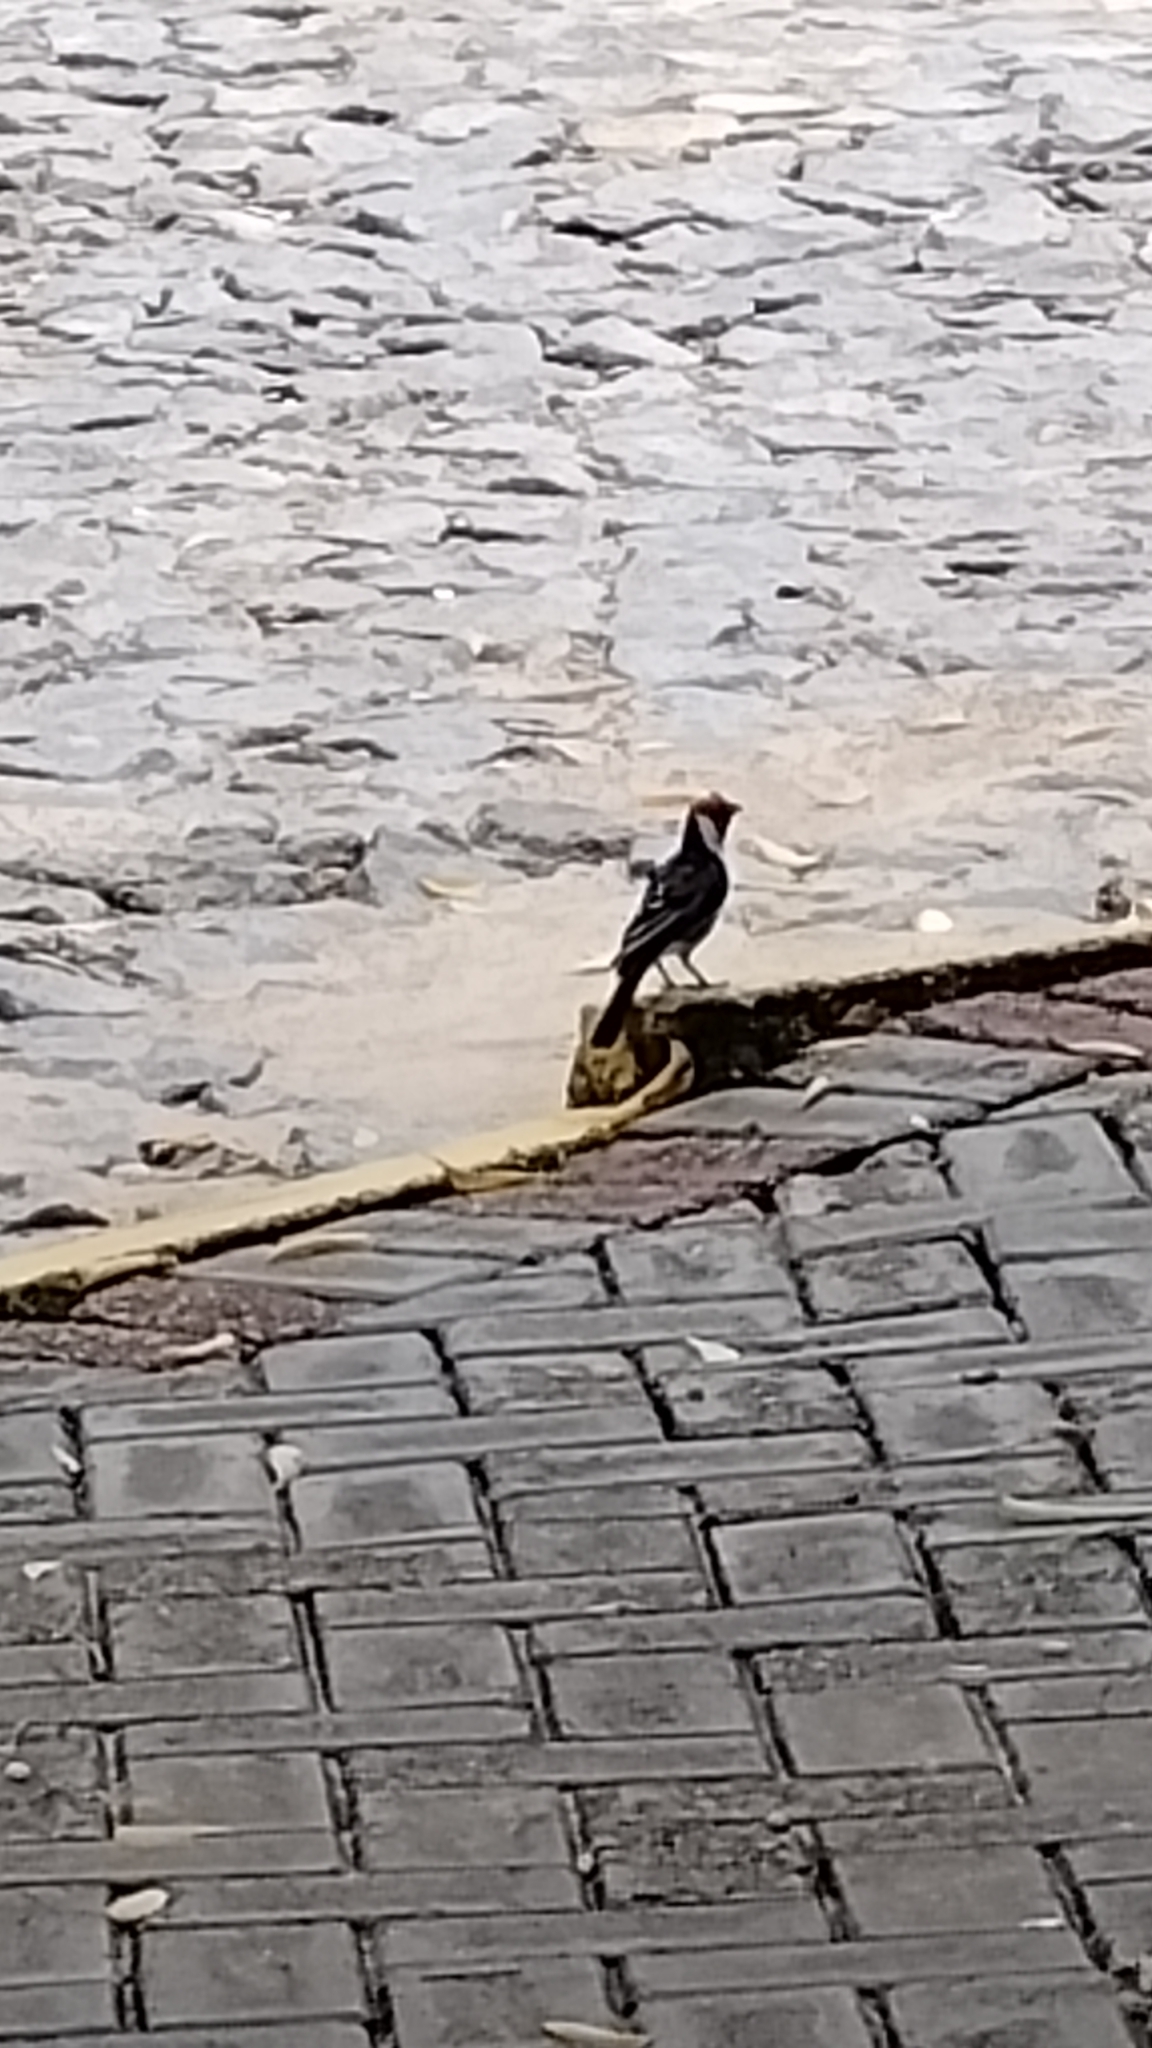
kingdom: Animalia
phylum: Chordata
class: Aves
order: Passeriformes
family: Thraupidae
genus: Paroaria
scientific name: Paroaria dominicana
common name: Red-cowled cardinal
